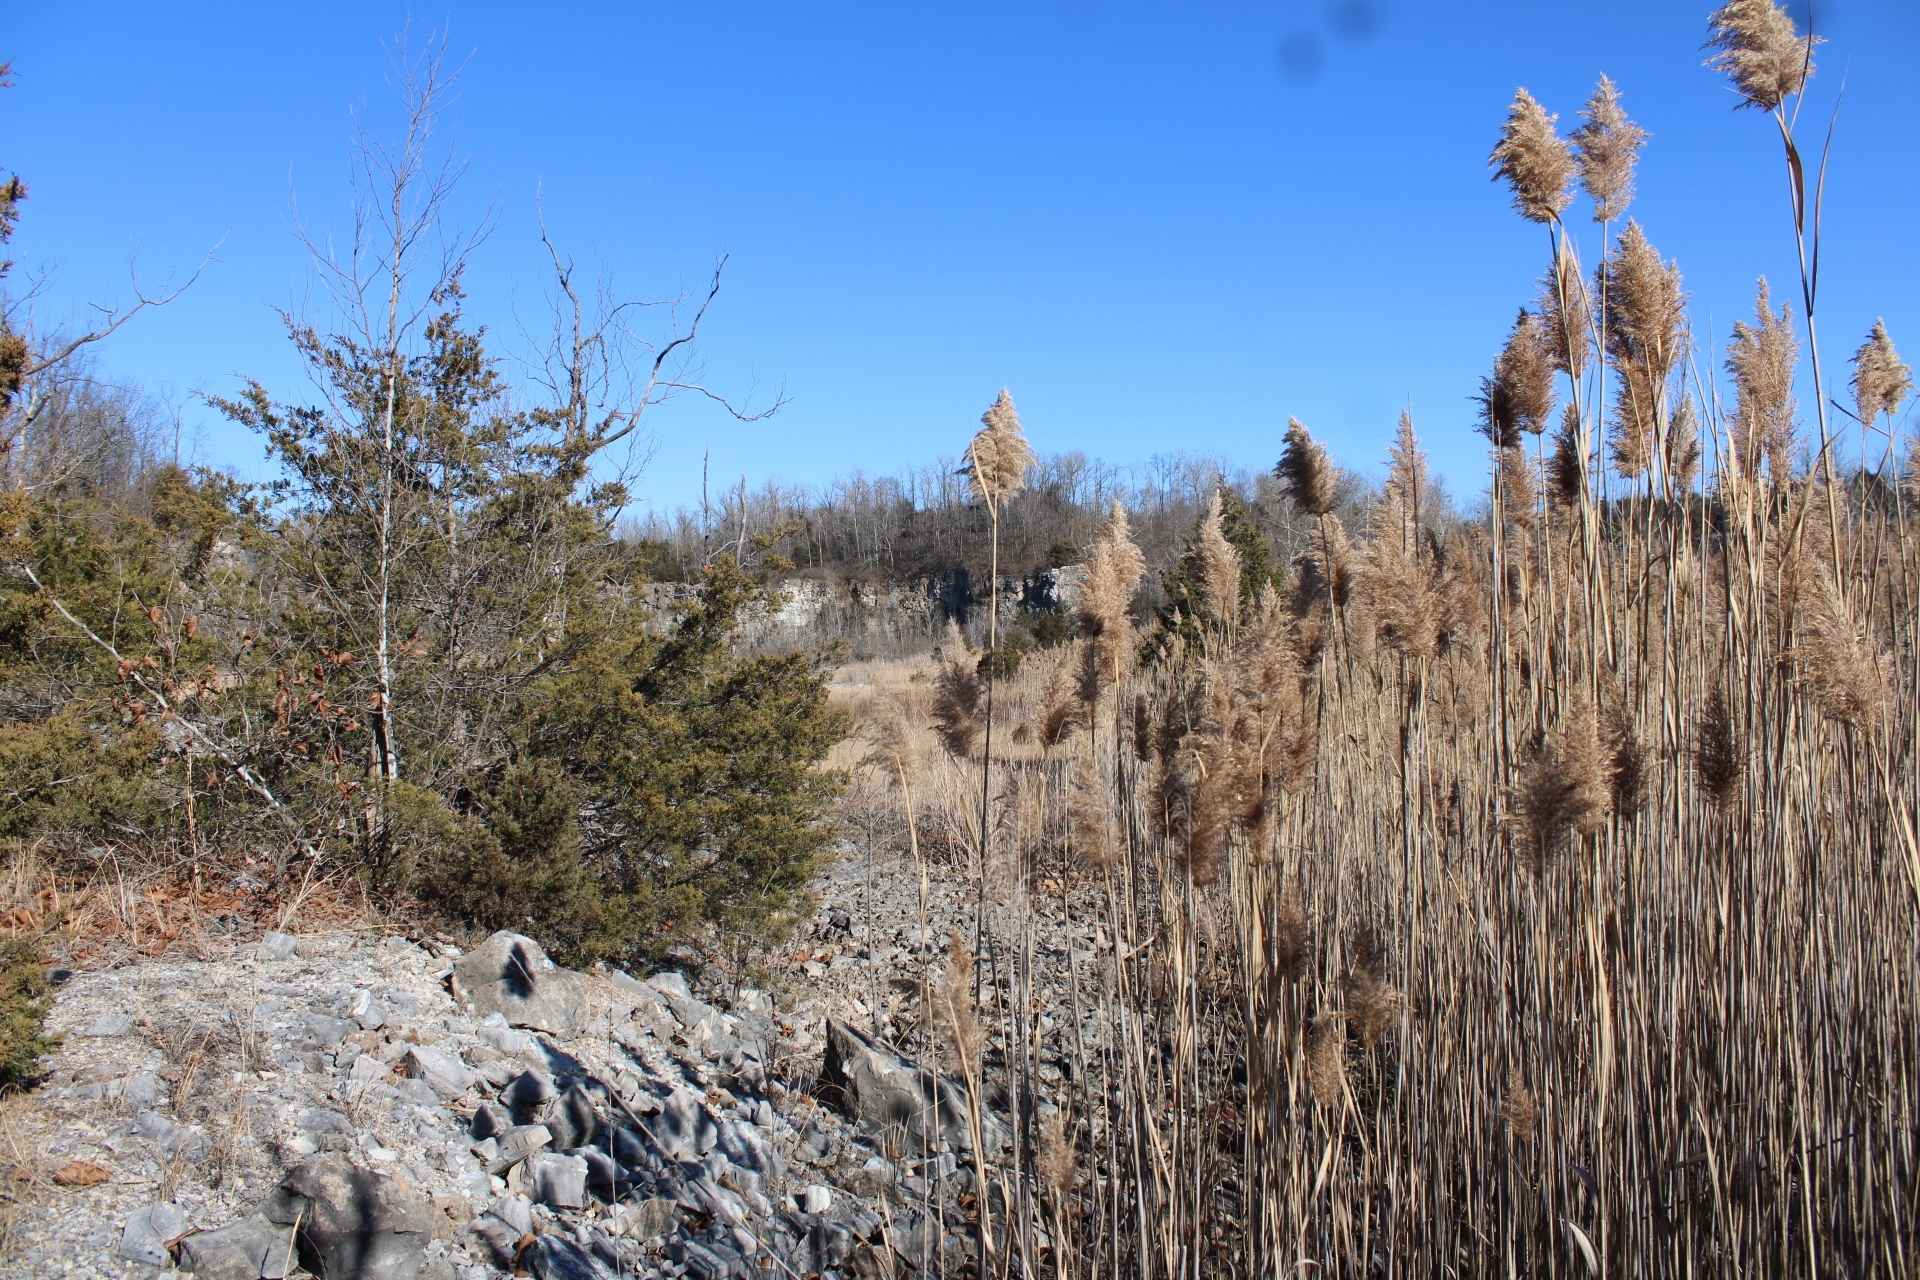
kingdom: Plantae
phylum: Tracheophyta
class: Pinopsida
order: Pinales
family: Cupressaceae
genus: Juniperus
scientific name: Juniperus virginiana
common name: Red juniper
